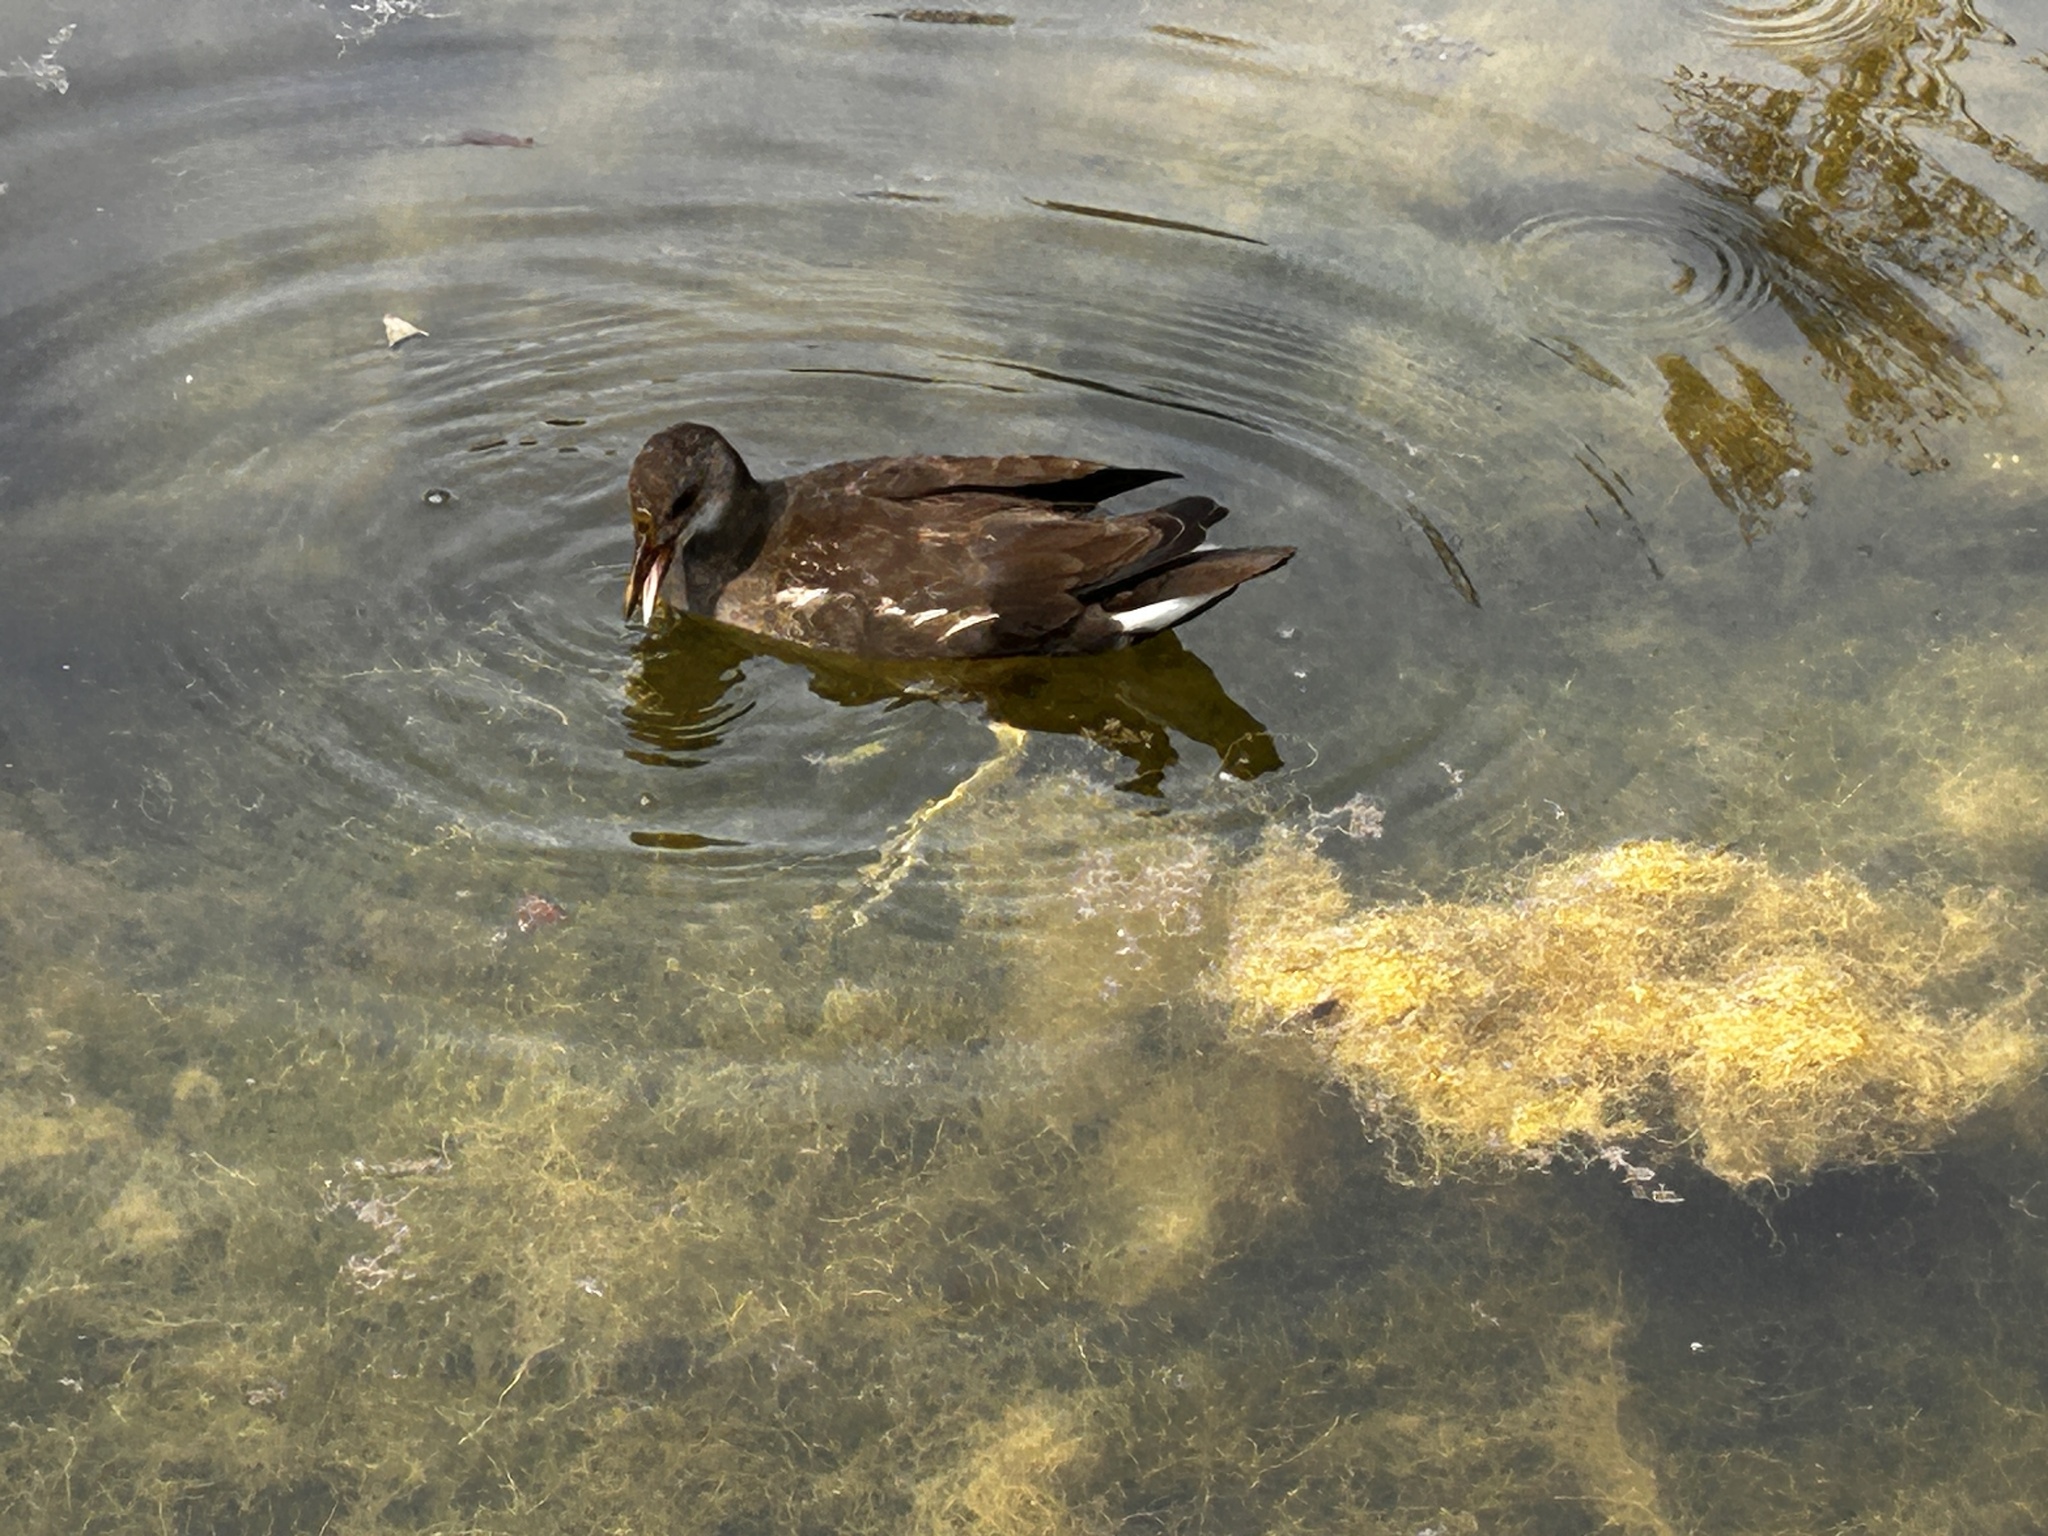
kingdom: Animalia
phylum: Chordata
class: Aves
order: Gruiformes
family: Rallidae
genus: Gallinula
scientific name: Gallinula chloropus
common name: Common moorhen
